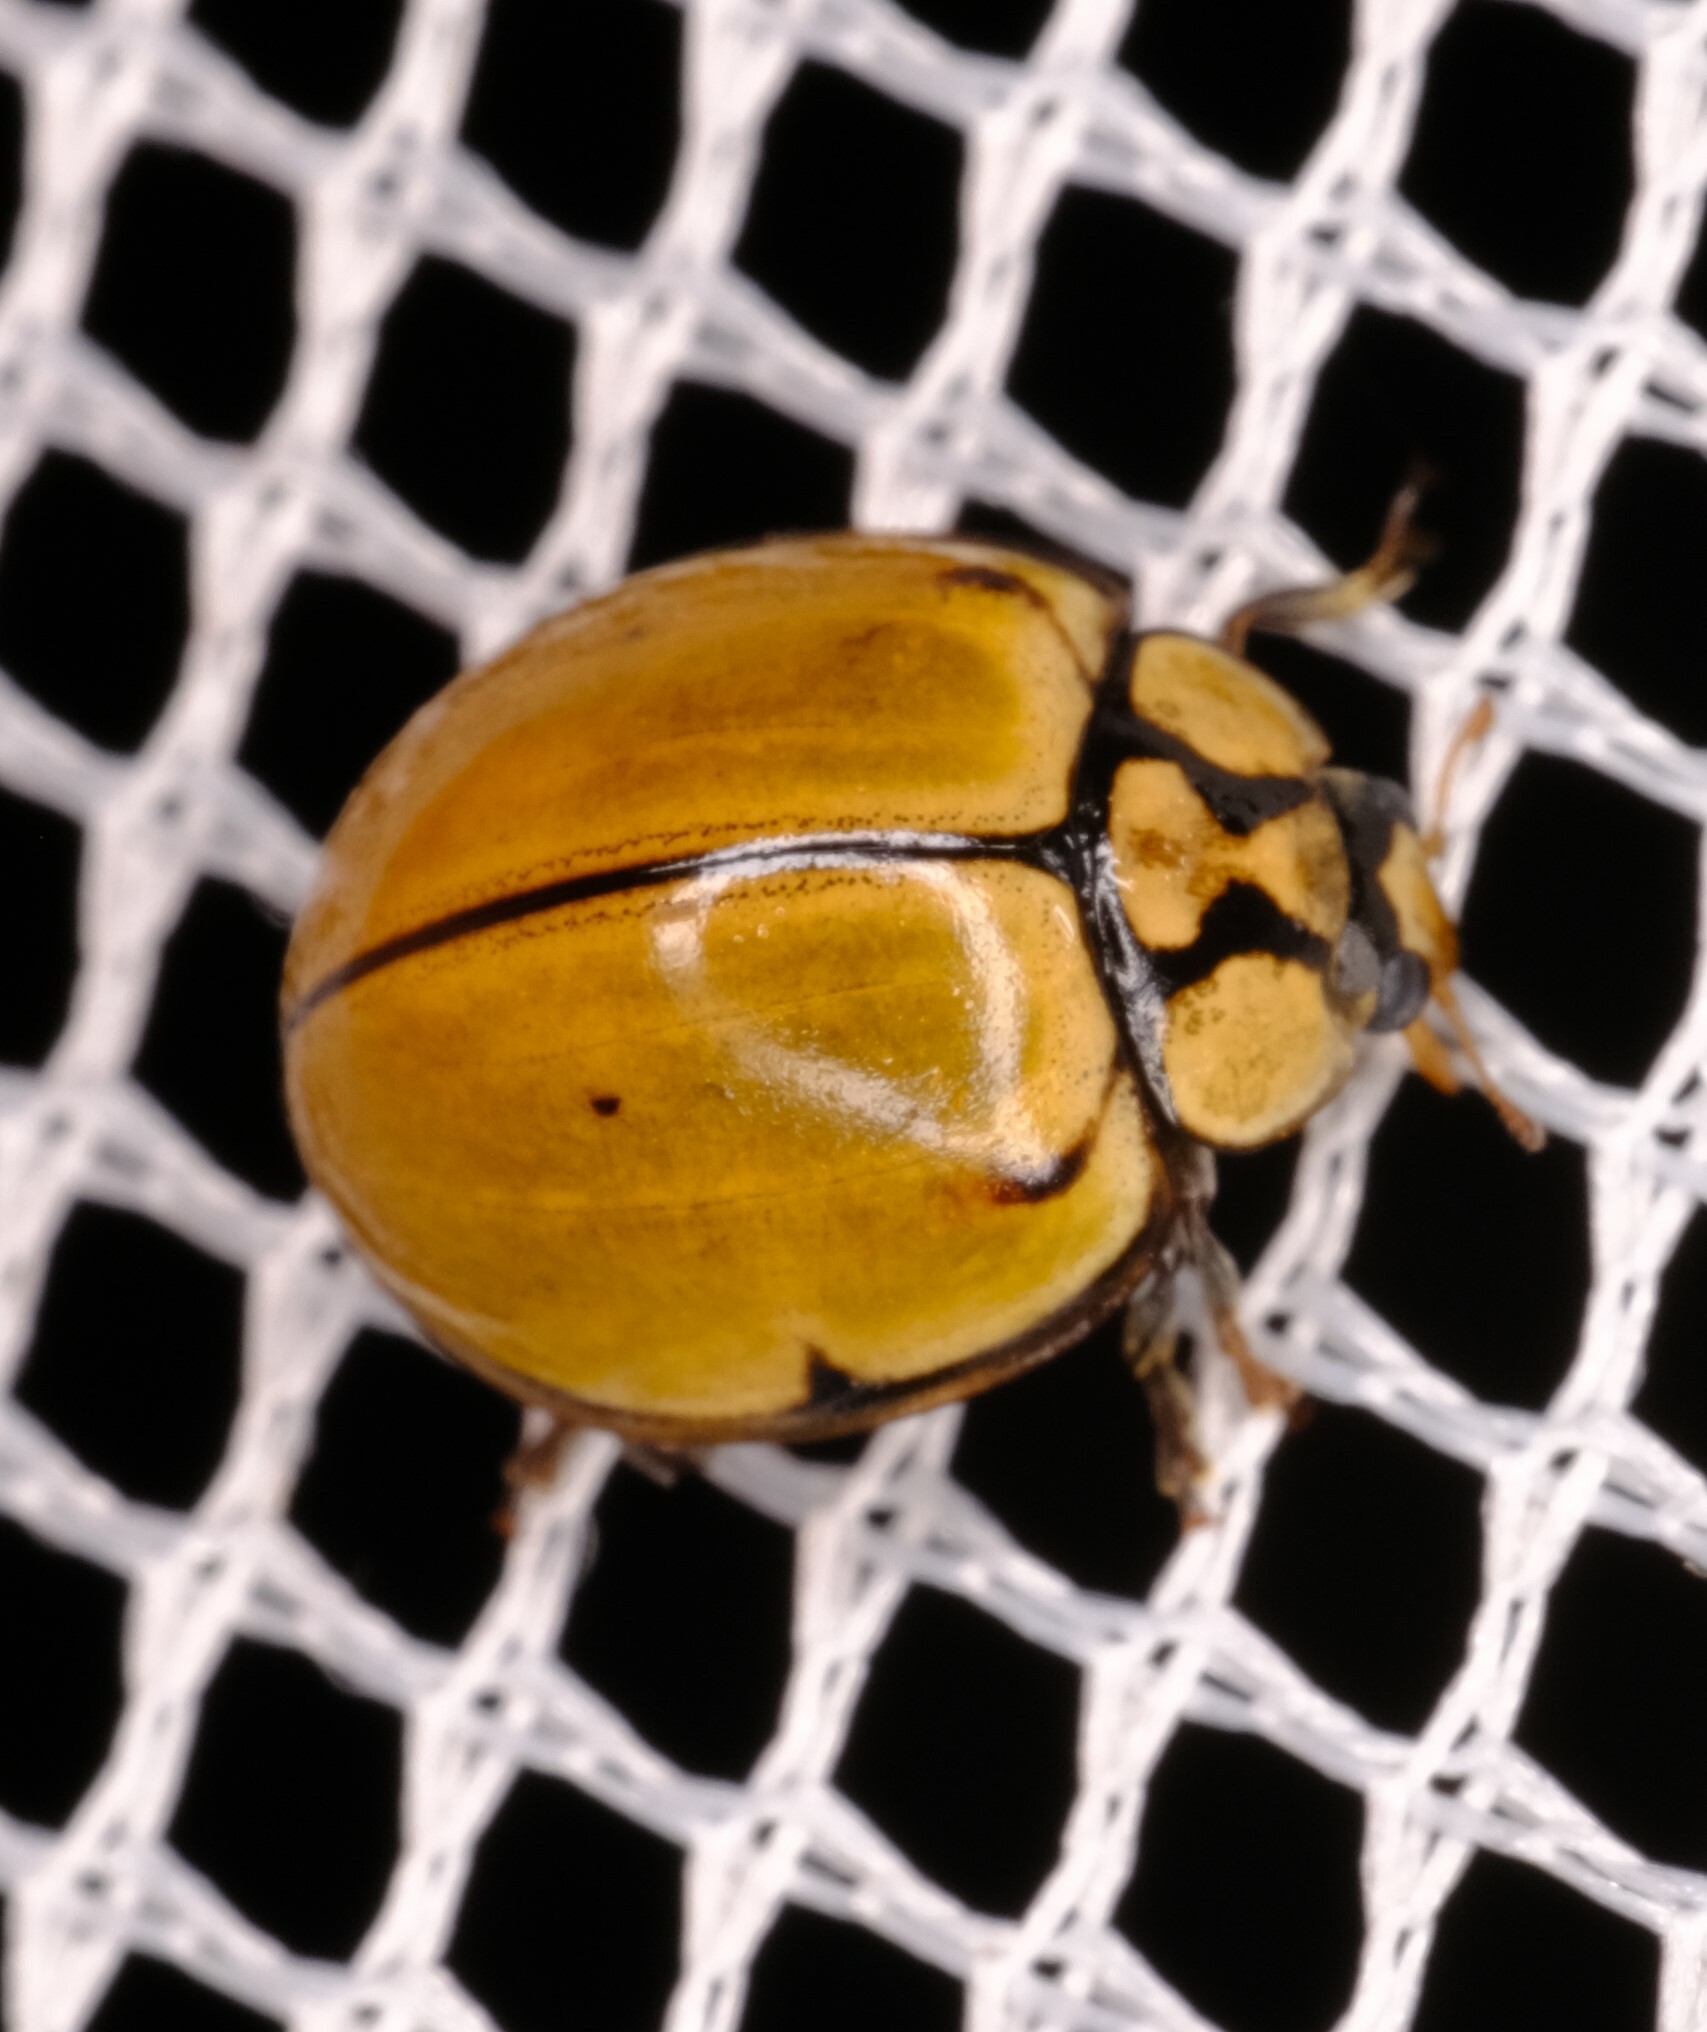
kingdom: Animalia
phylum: Arthropoda
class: Insecta
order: Coleoptera
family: Coccinellidae
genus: Harmonia
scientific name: Harmonia
